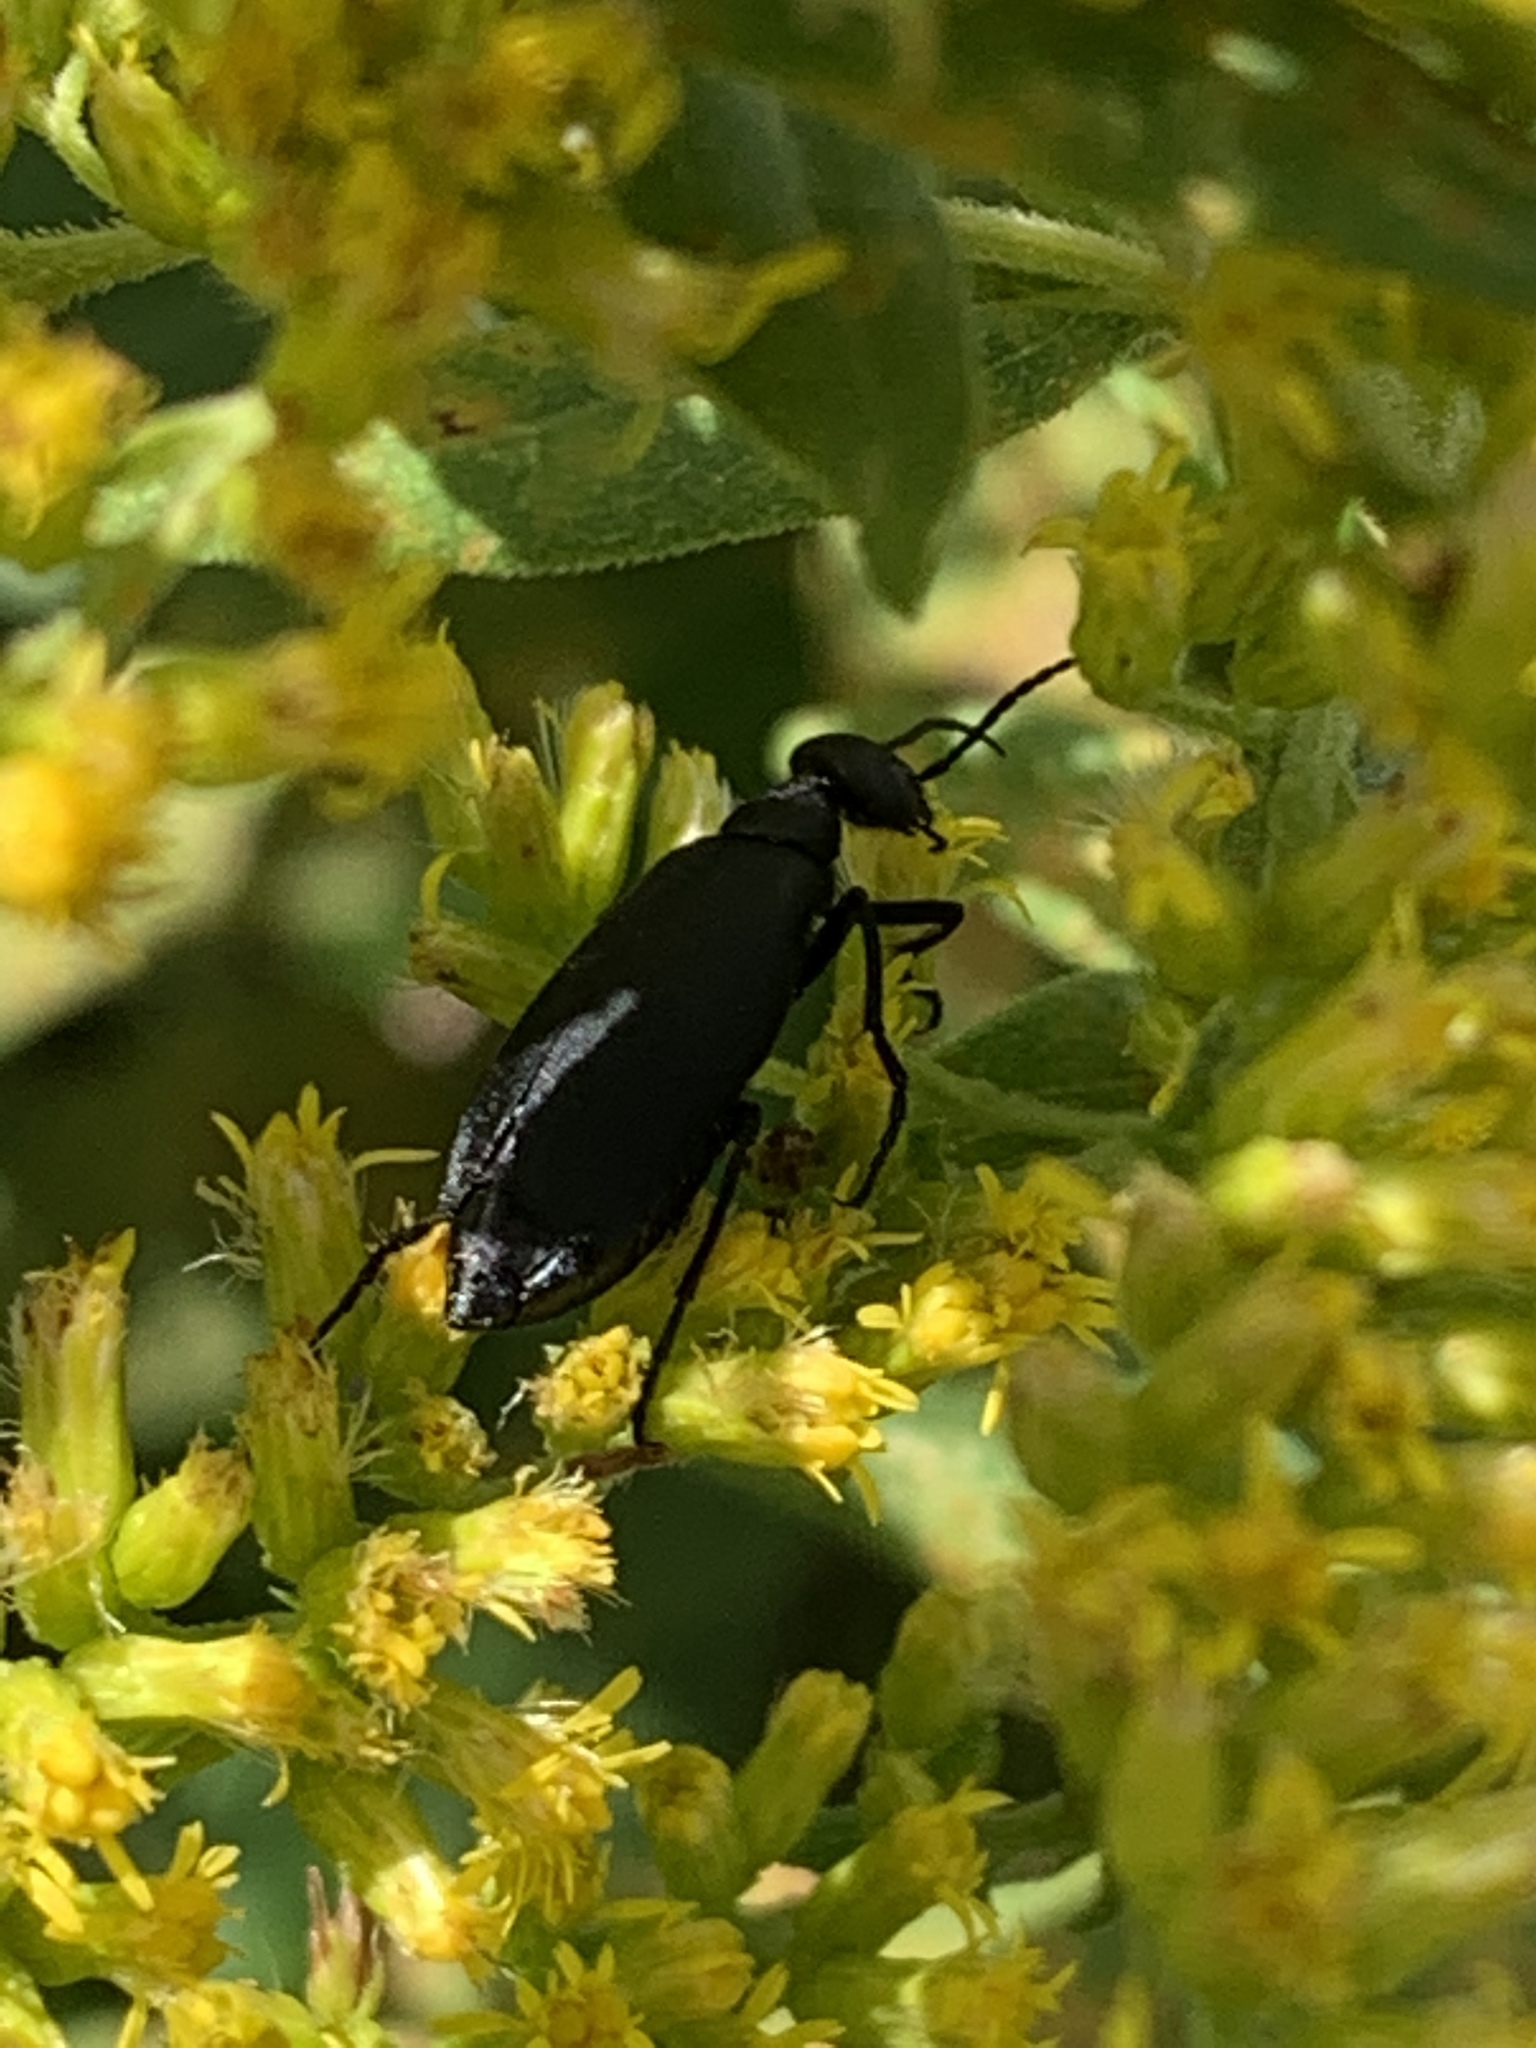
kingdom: Animalia
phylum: Arthropoda
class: Insecta
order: Coleoptera
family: Meloidae
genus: Epicauta
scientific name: Epicauta pensylvanica
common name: Black blister beetle
